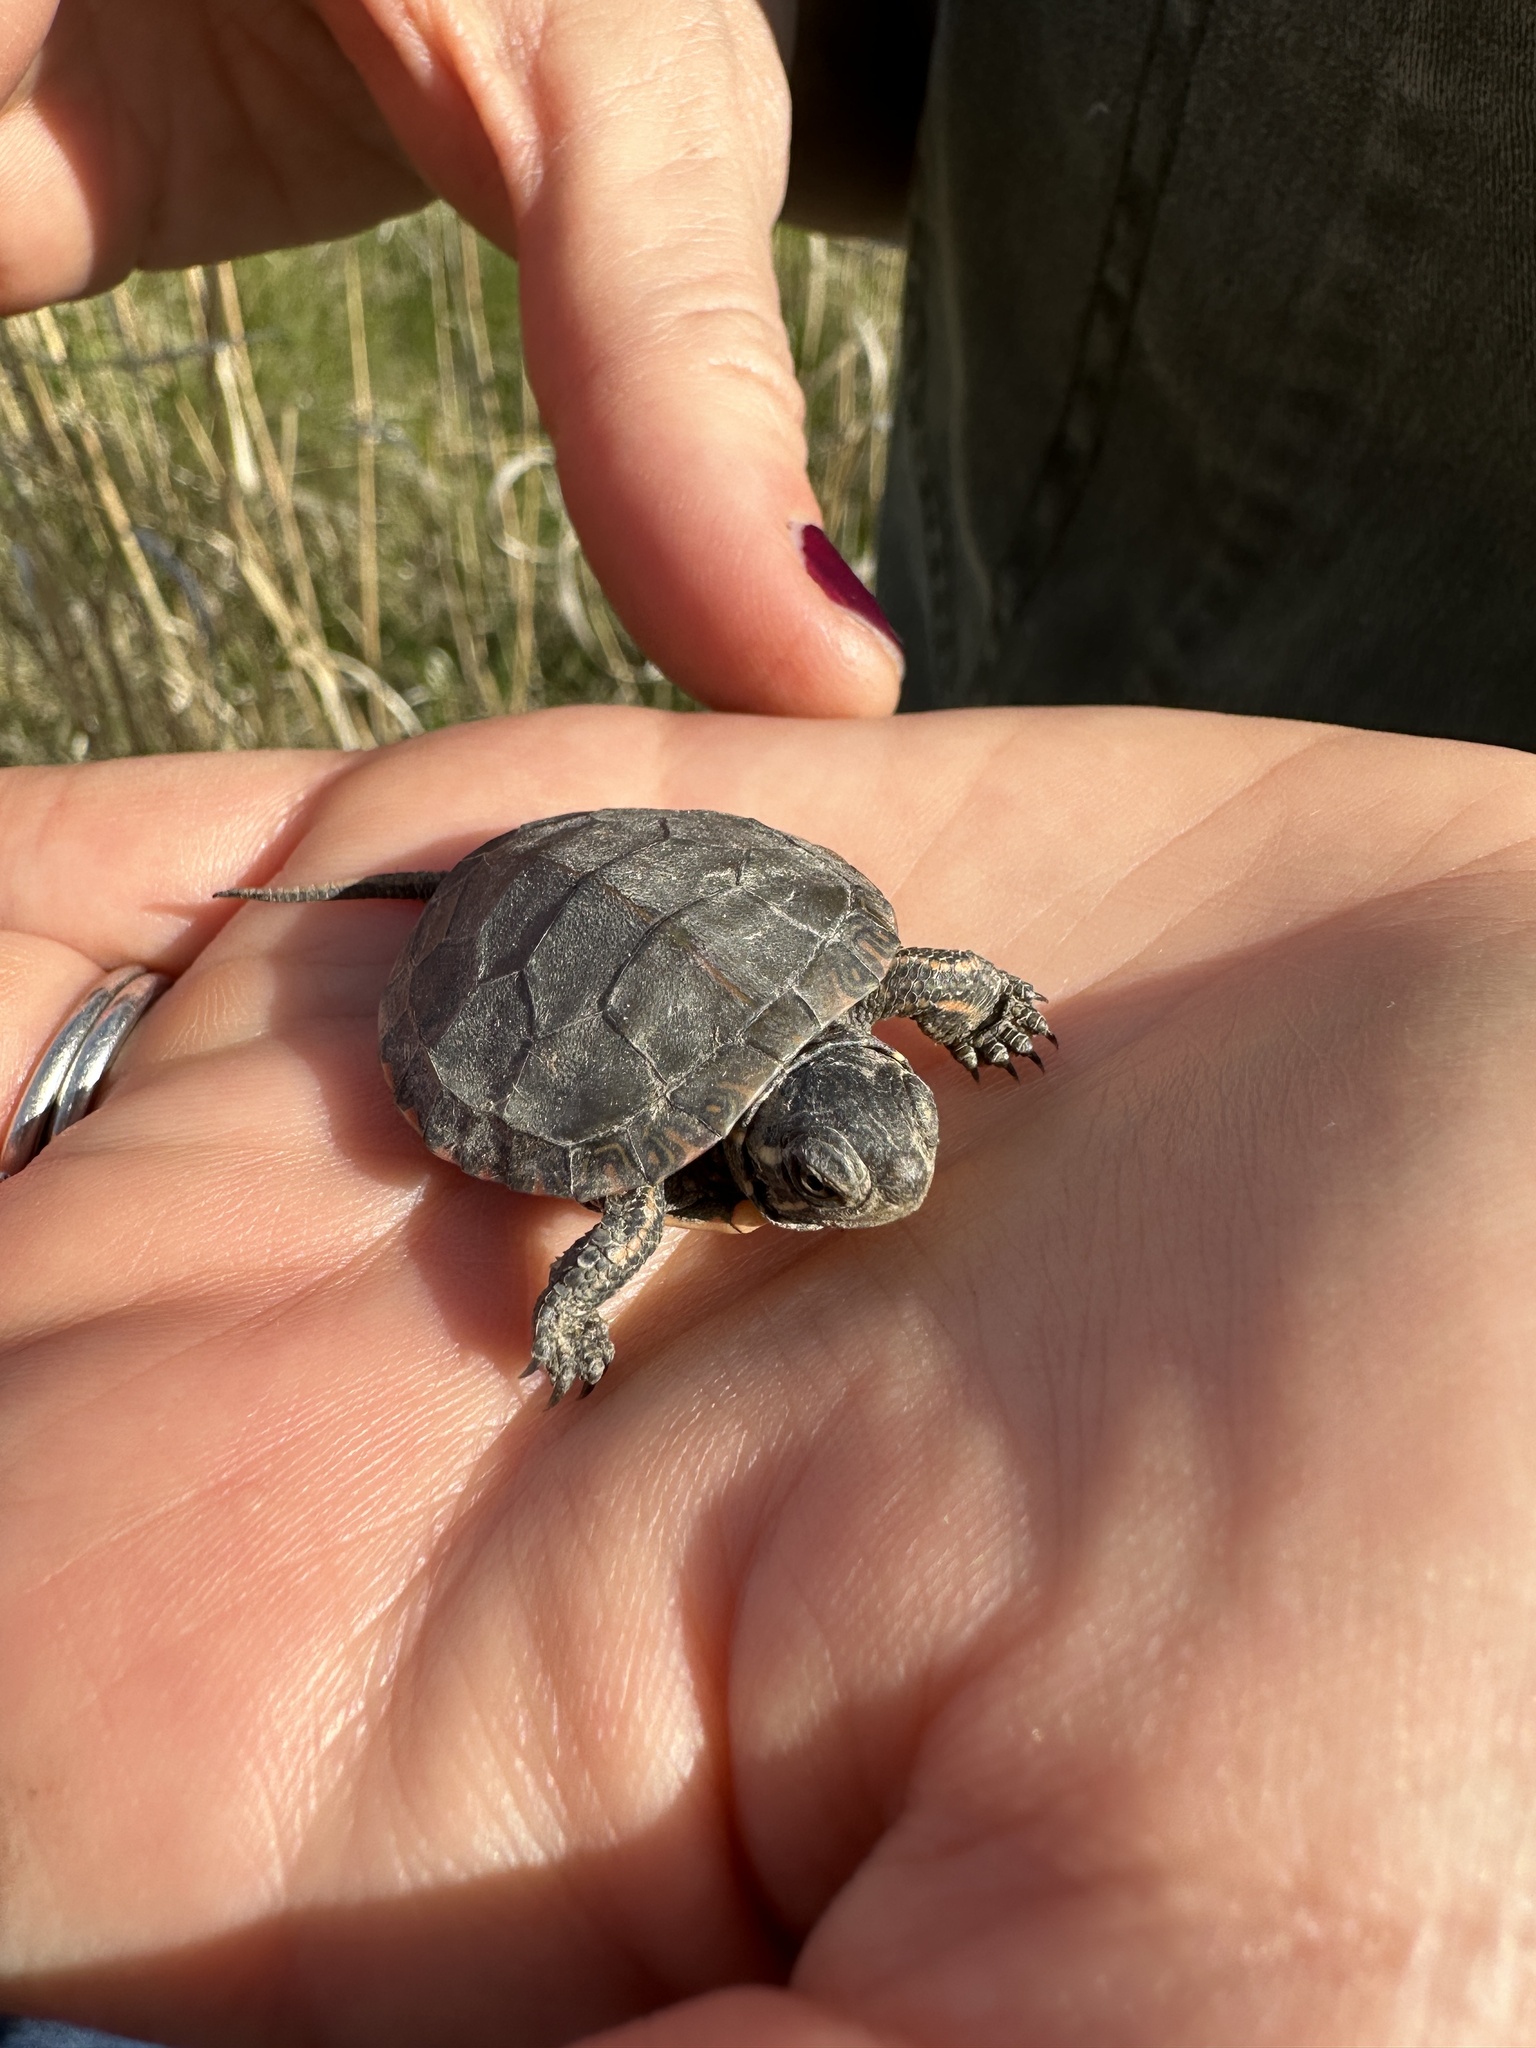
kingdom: Animalia
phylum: Chordata
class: Testudines
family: Emydidae
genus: Chrysemys
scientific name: Chrysemys picta
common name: Painted turtle
